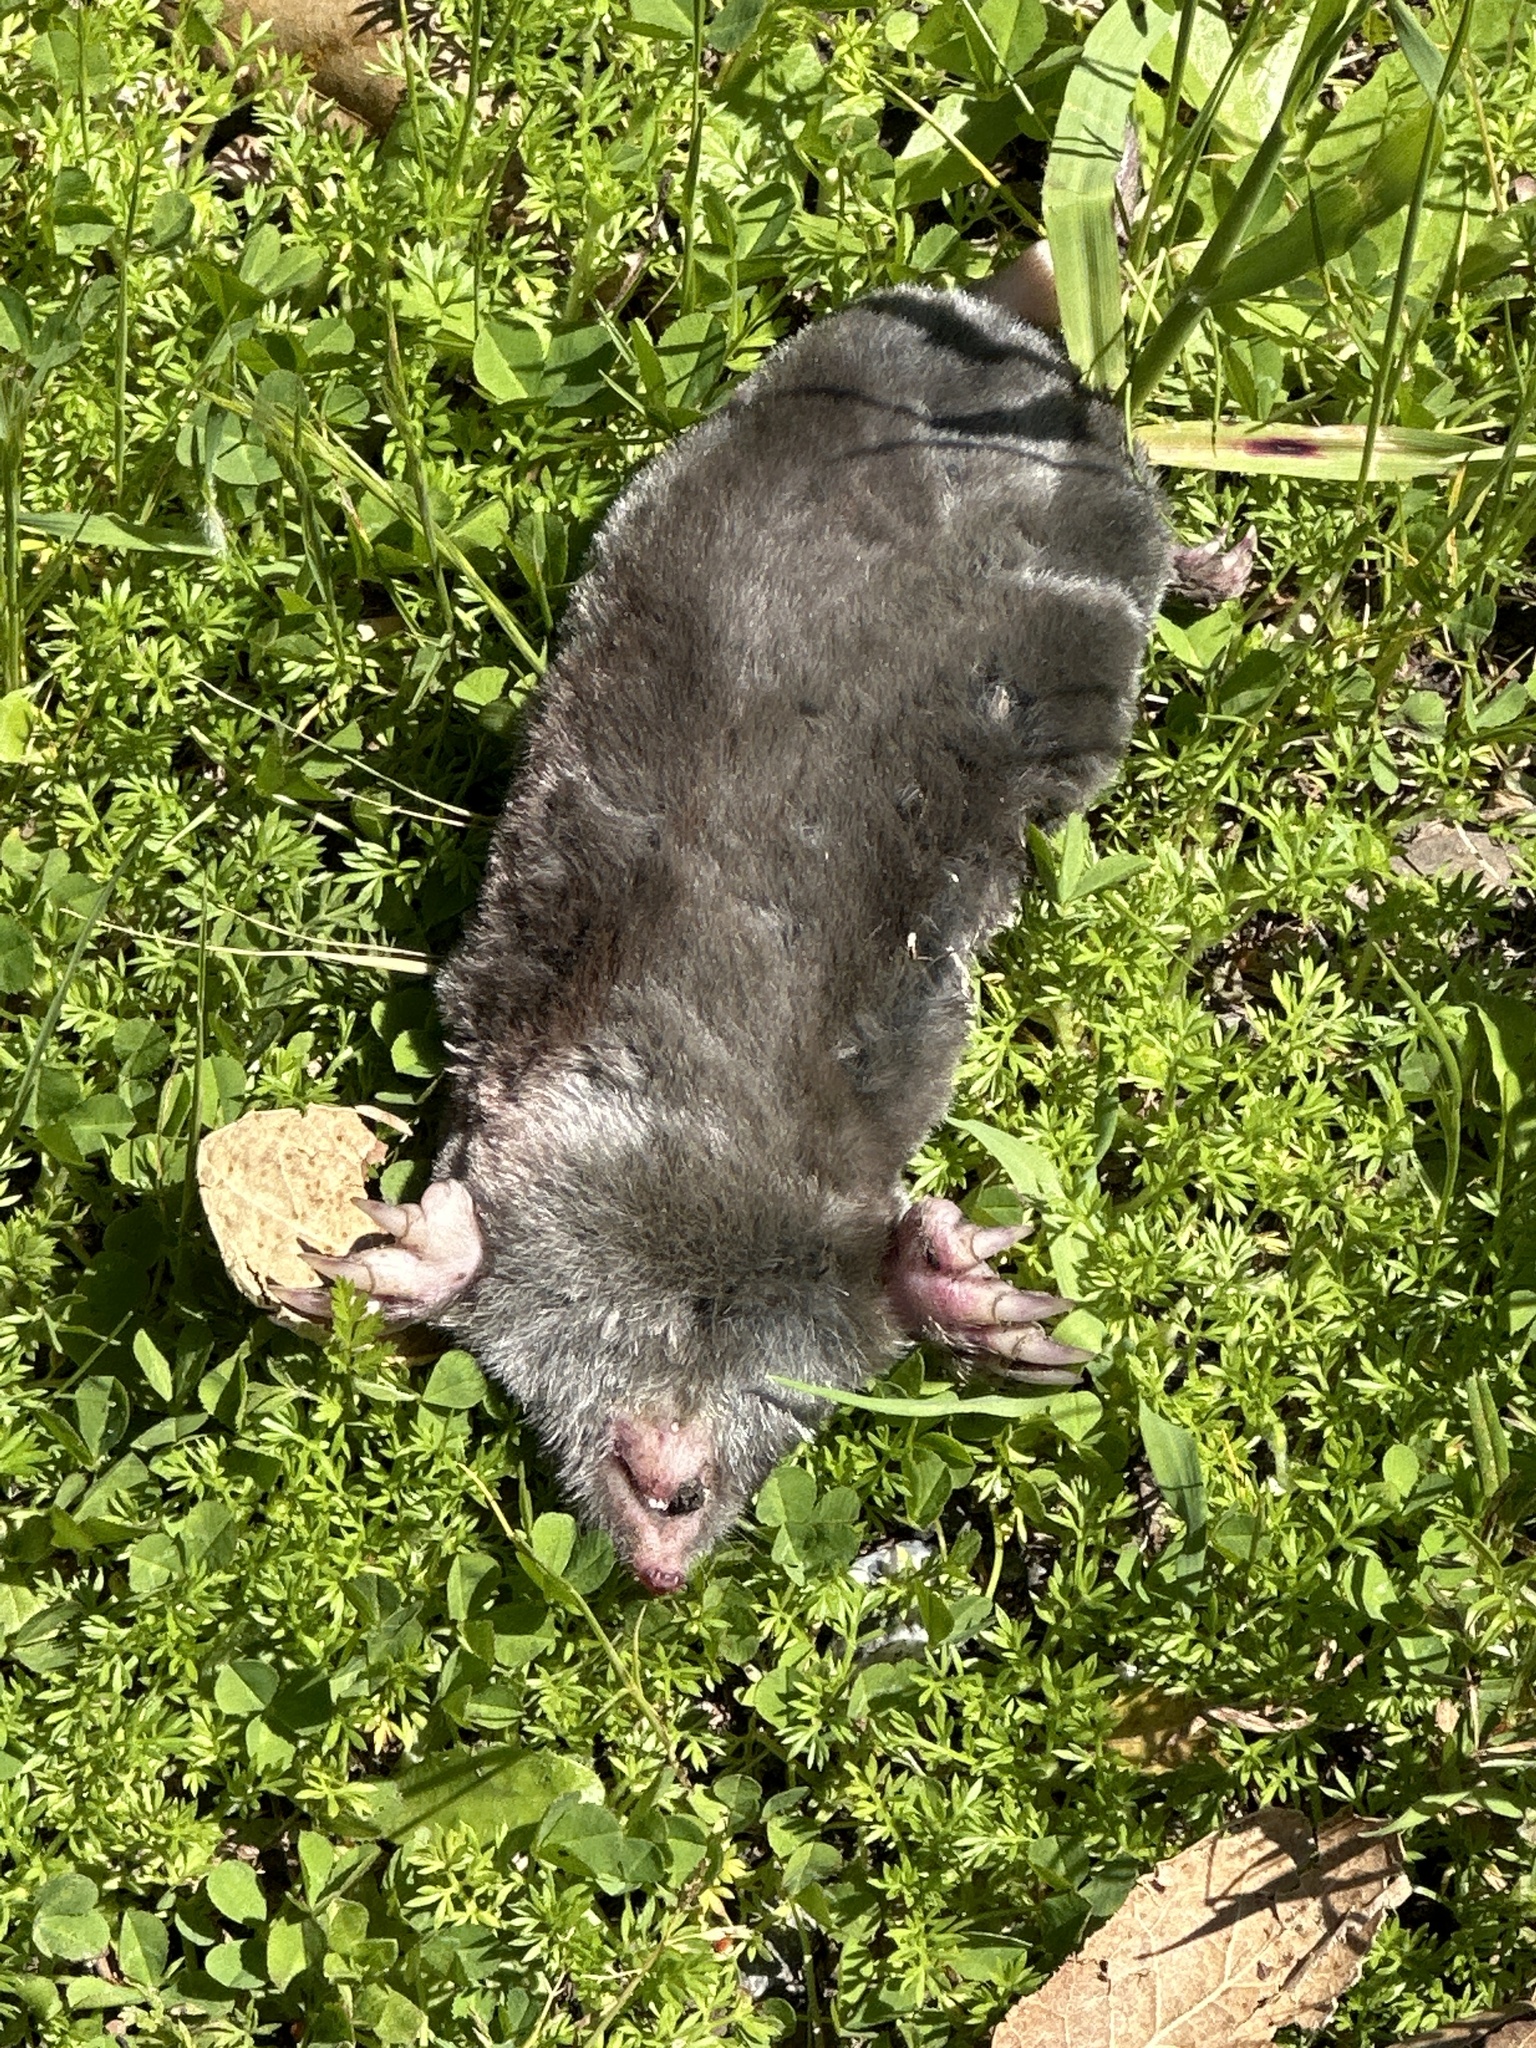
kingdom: Animalia
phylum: Chordata
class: Mammalia
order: Soricomorpha
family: Talpidae
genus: Scapanus
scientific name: Scapanus latimanus
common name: Broad-footed mole
